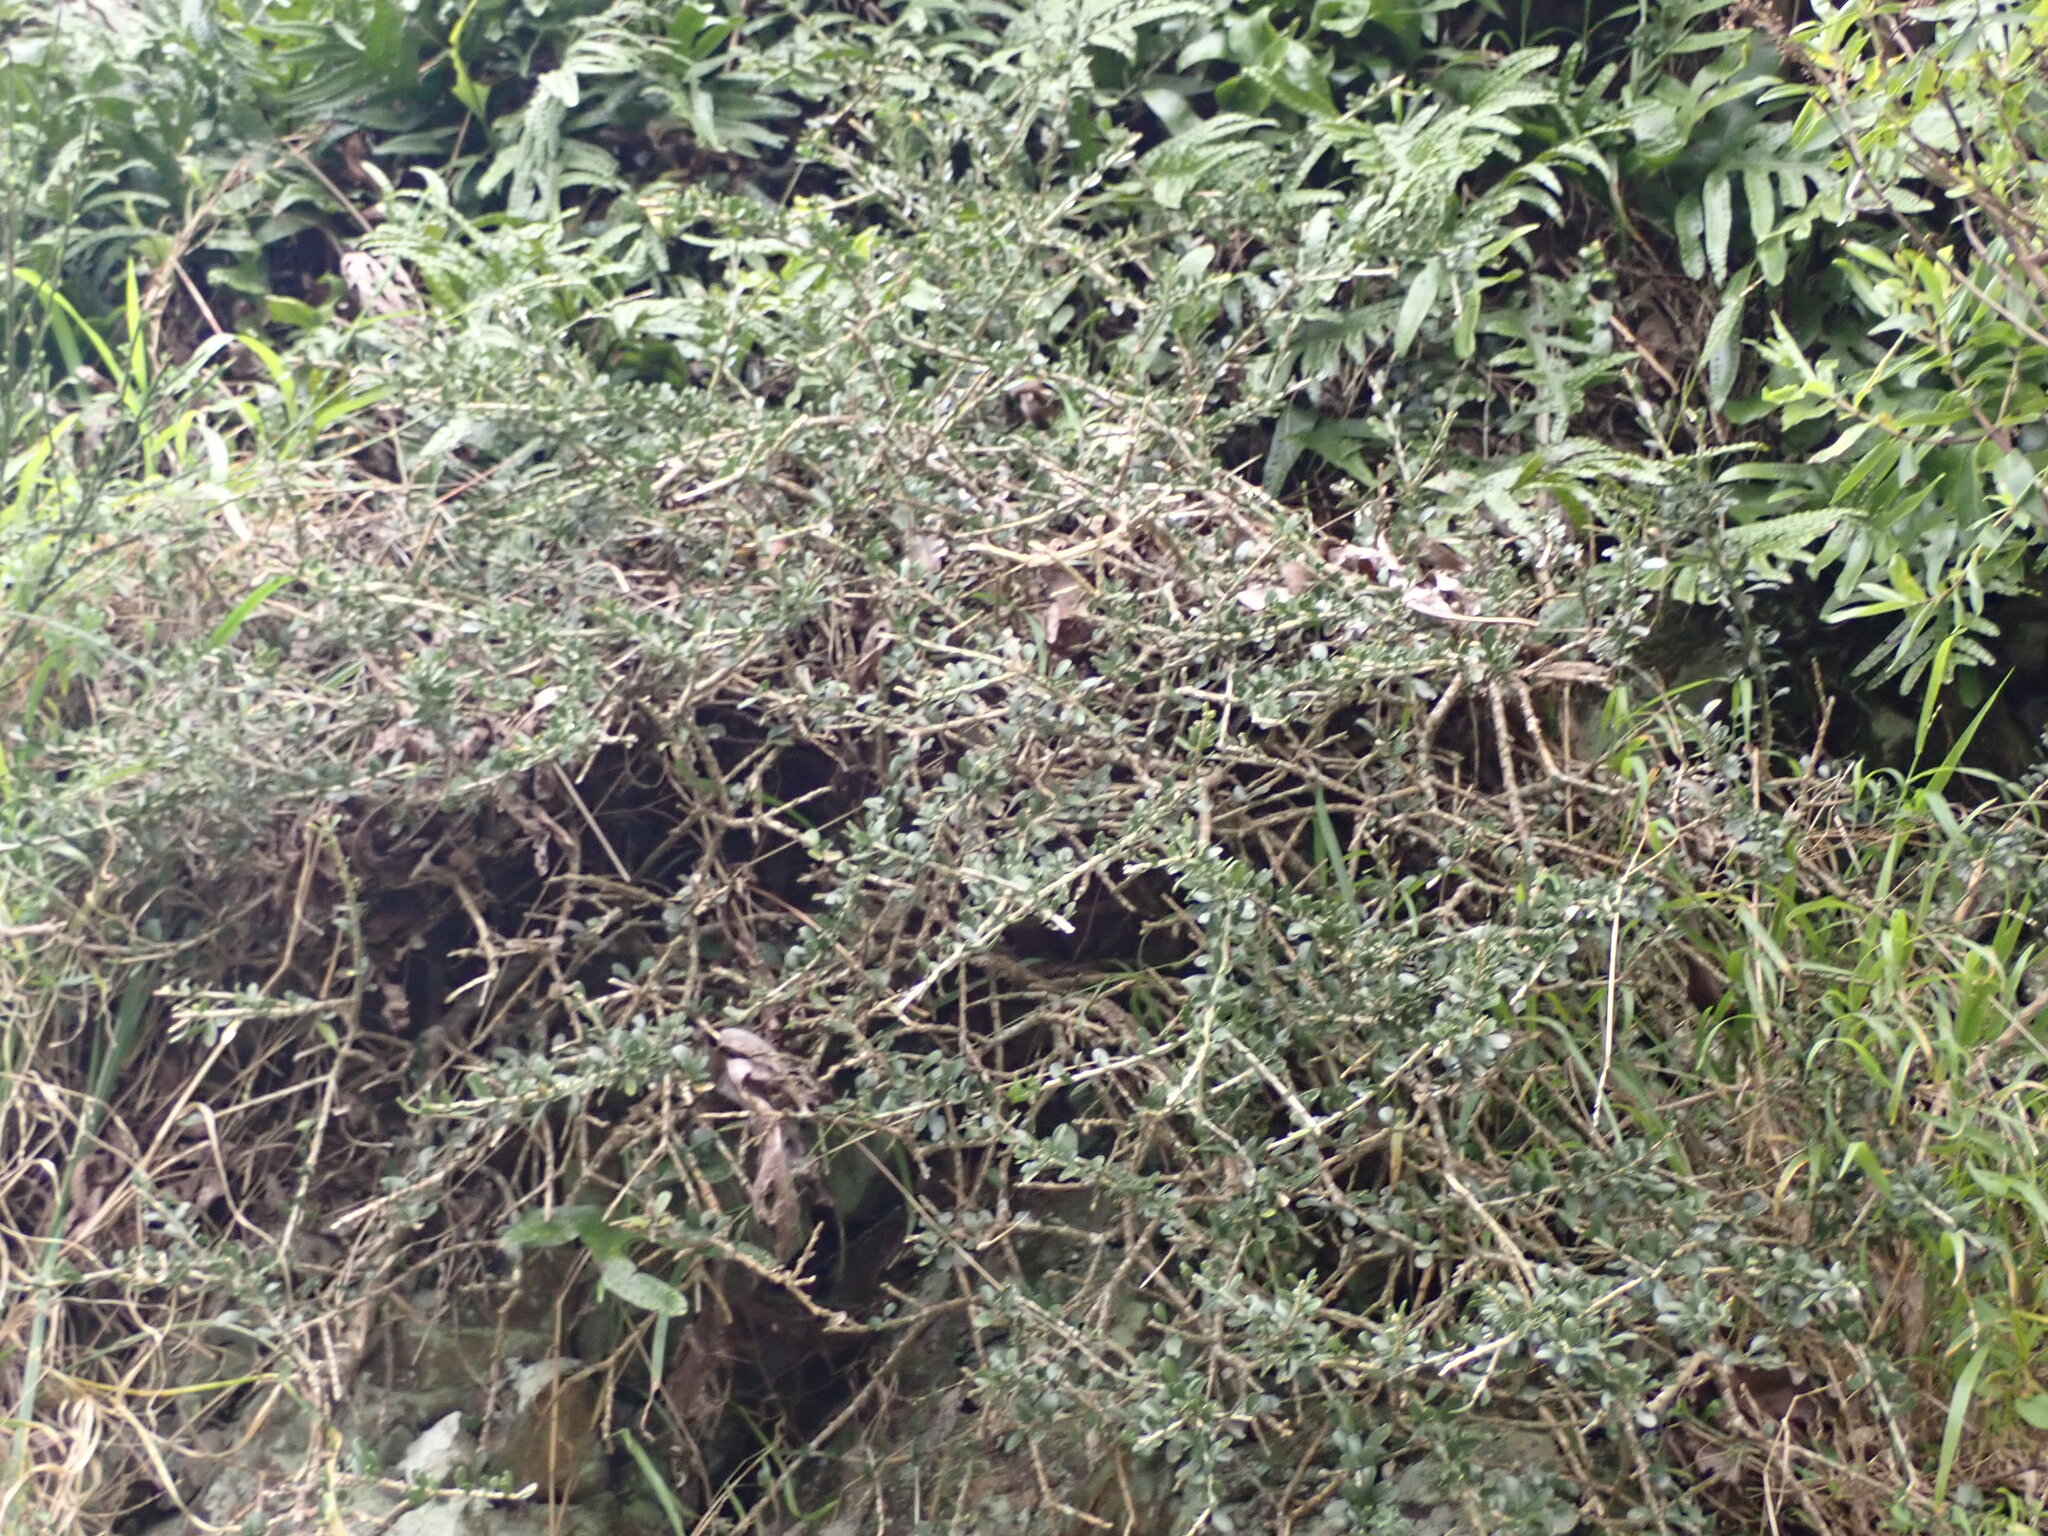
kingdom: Plantae
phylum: Tracheophyta
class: Magnoliopsida
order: Malpighiales
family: Violaceae
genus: Melicytus
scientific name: Melicytus crassifolius
